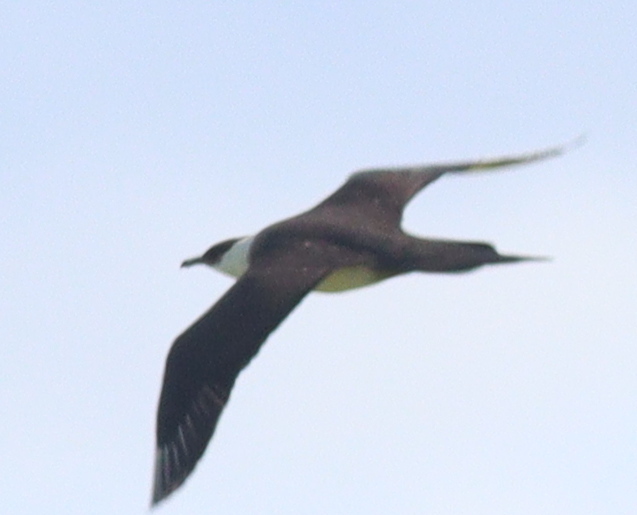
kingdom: Animalia
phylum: Chordata
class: Aves
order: Charadriiformes
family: Stercorariidae
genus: Stercorarius
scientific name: Stercorarius parasiticus
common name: Parasitic jaeger
